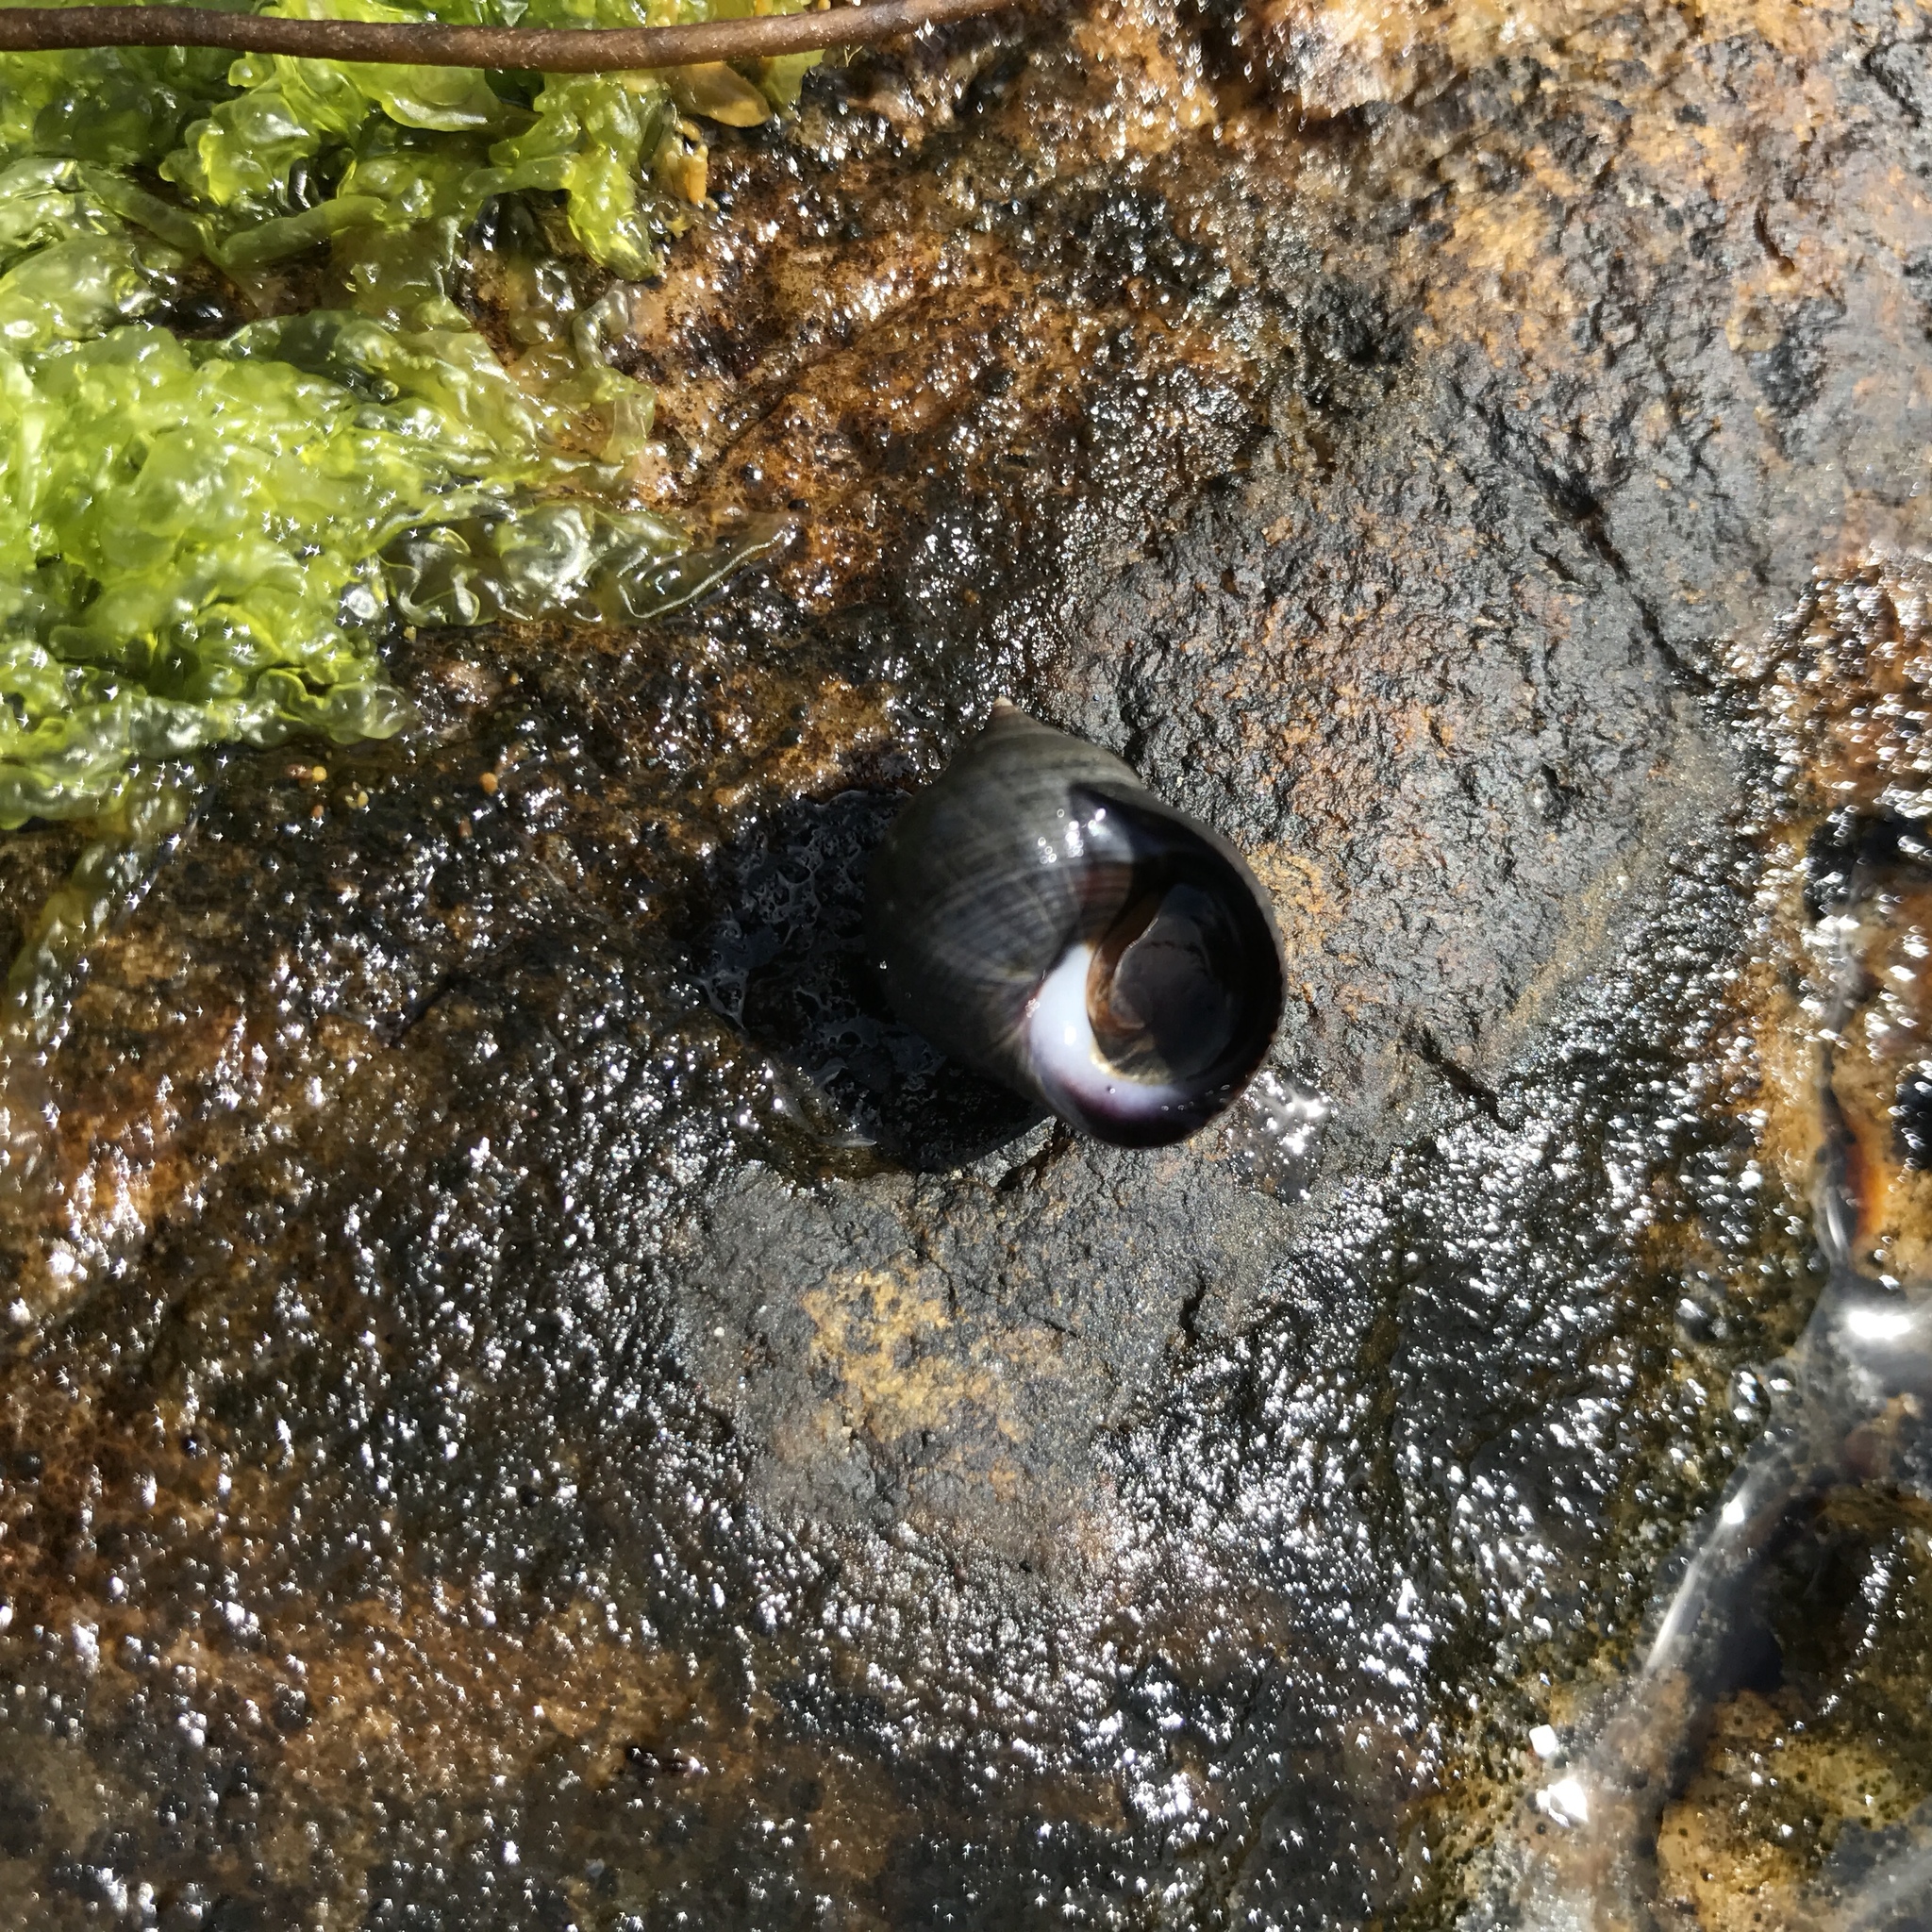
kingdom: Animalia
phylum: Mollusca
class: Gastropoda
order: Littorinimorpha
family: Littorinidae
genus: Littorina
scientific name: Littorina littorea
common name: Common periwinkle
